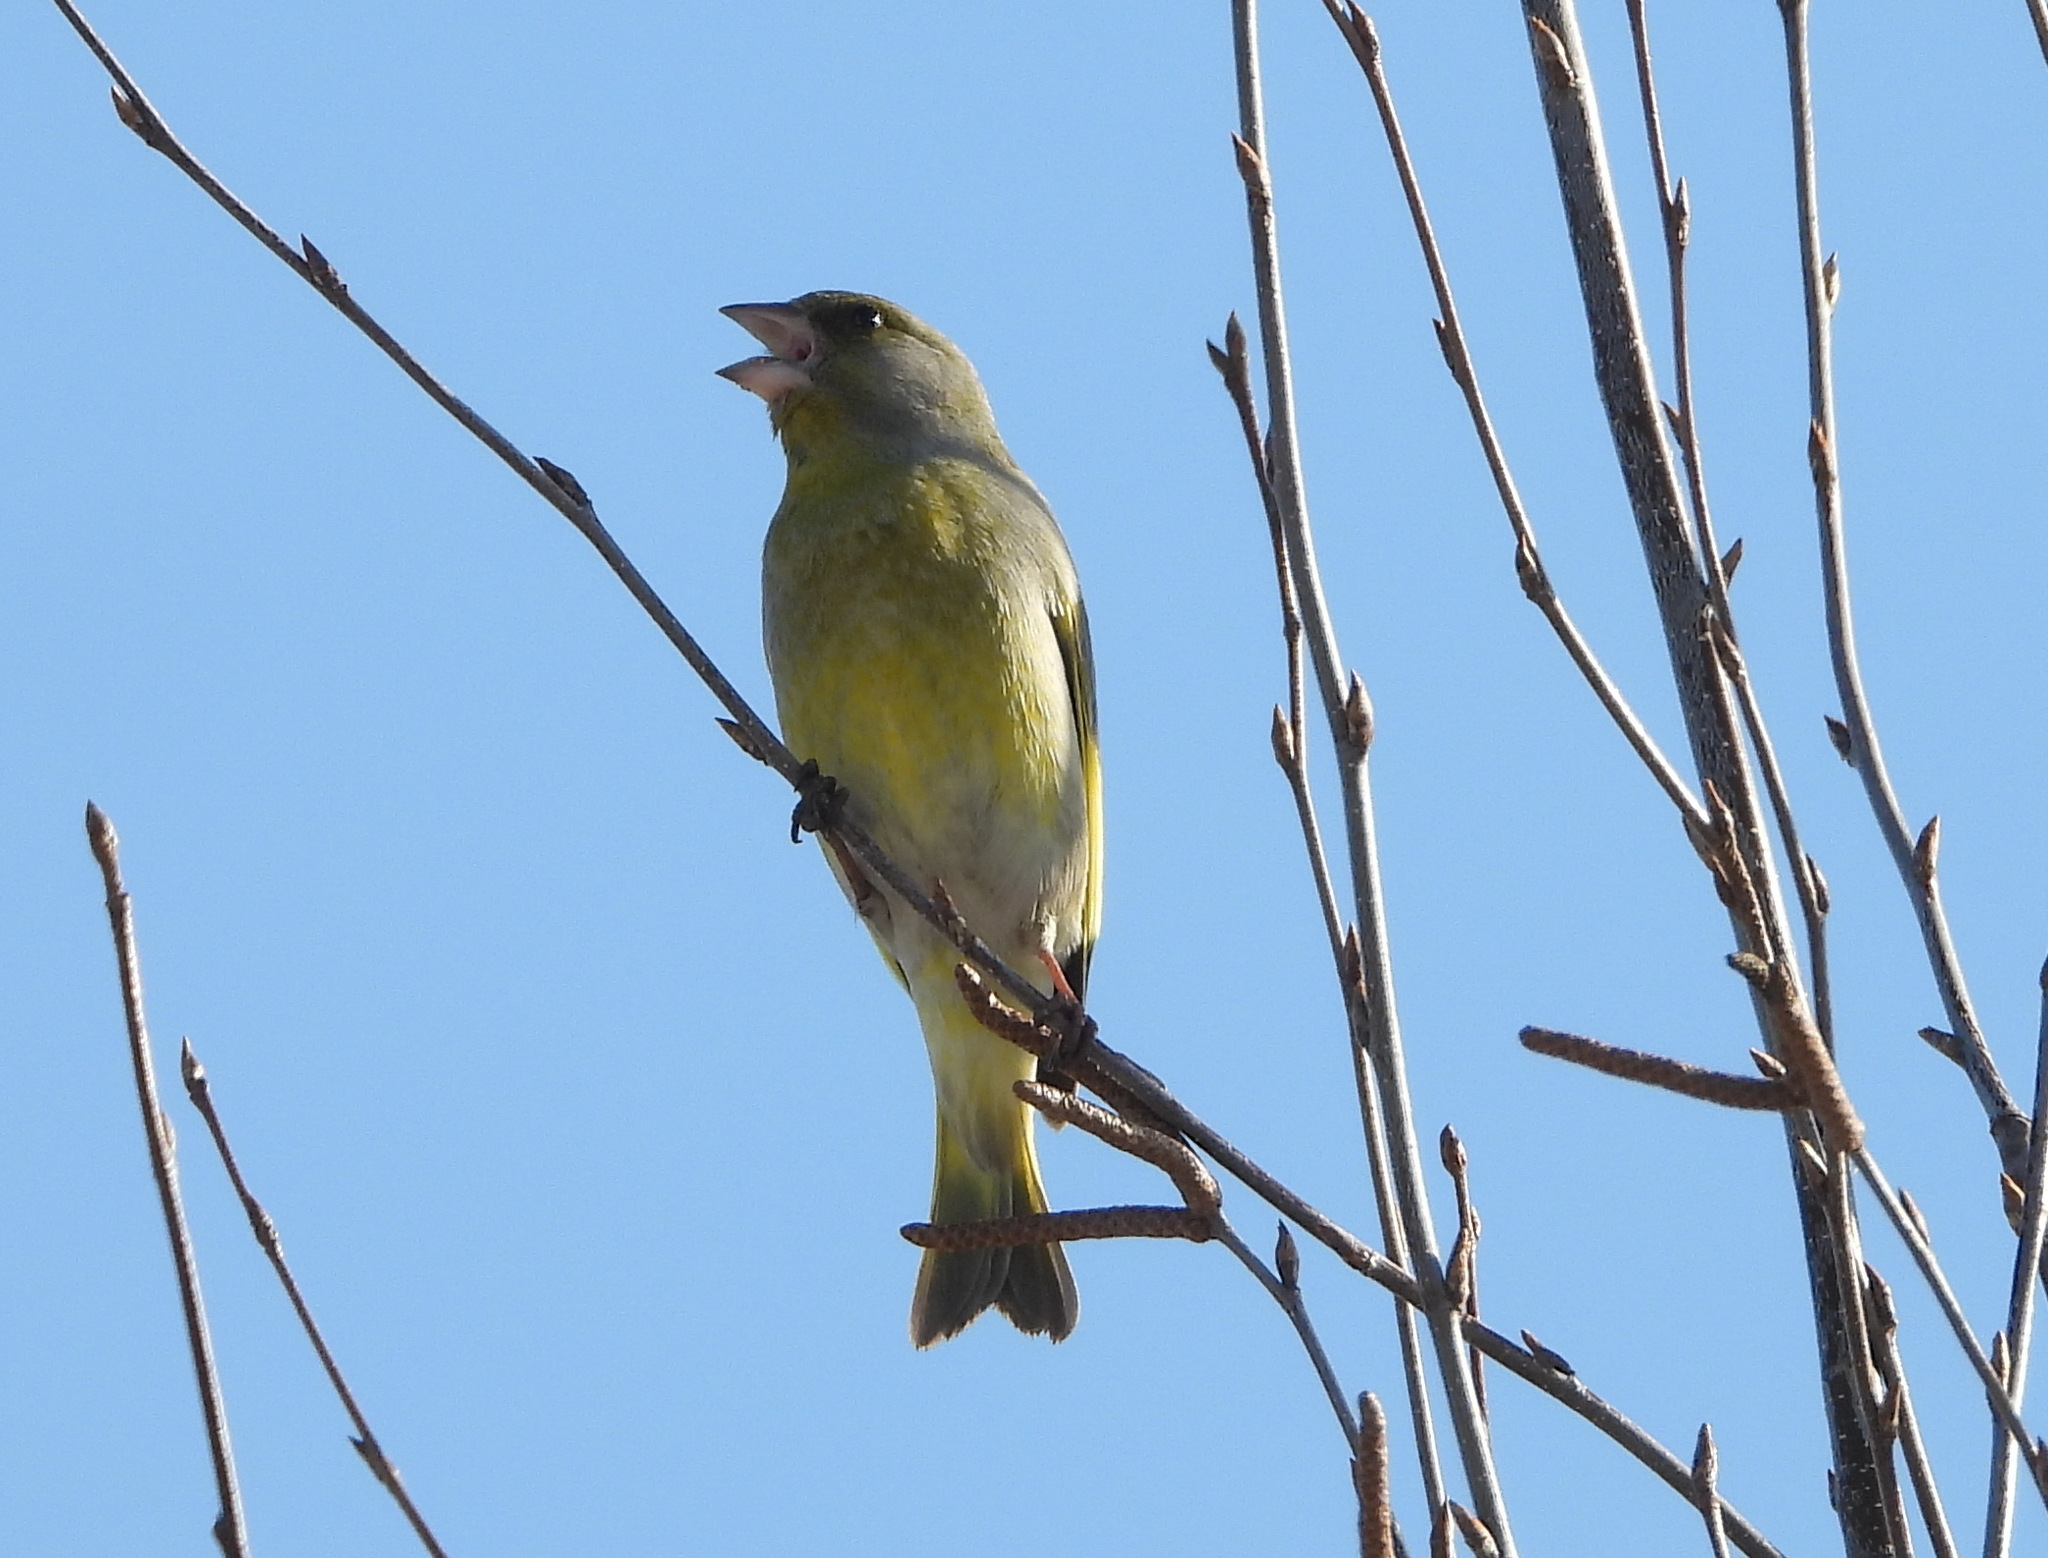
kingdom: Plantae
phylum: Tracheophyta
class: Liliopsida
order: Poales
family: Poaceae
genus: Chloris
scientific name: Chloris chloris
